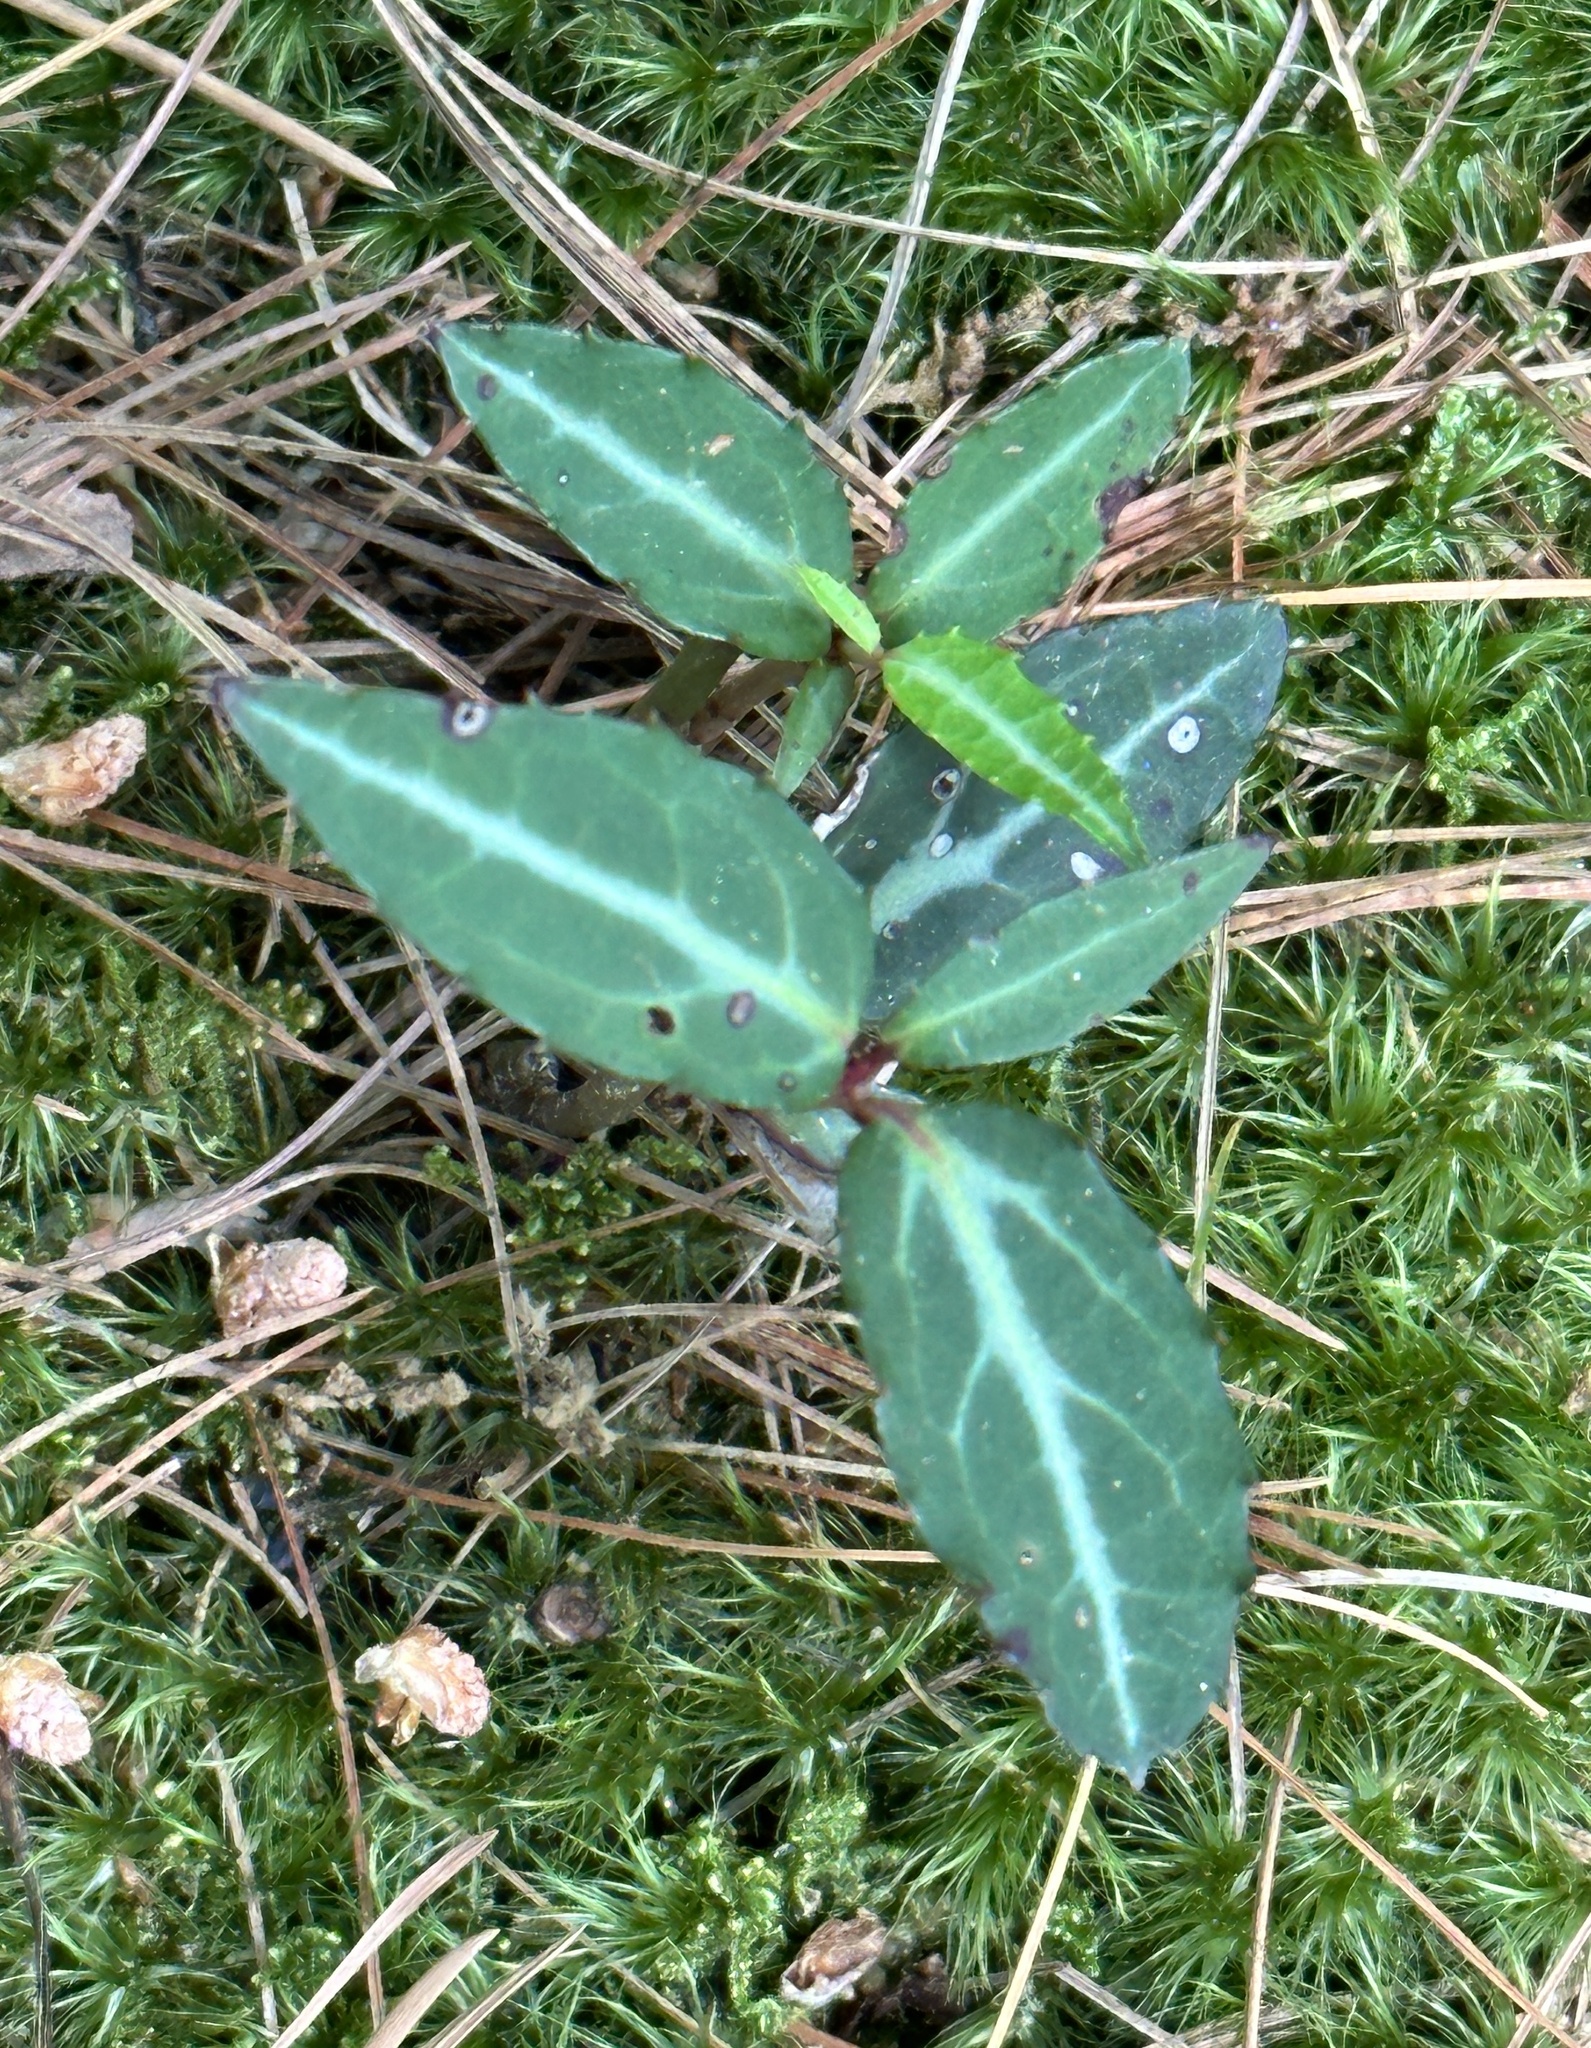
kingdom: Plantae
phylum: Tracheophyta
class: Magnoliopsida
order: Ericales
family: Ericaceae
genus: Chimaphila
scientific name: Chimaphila maculata
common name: Spotted pipsissewa
